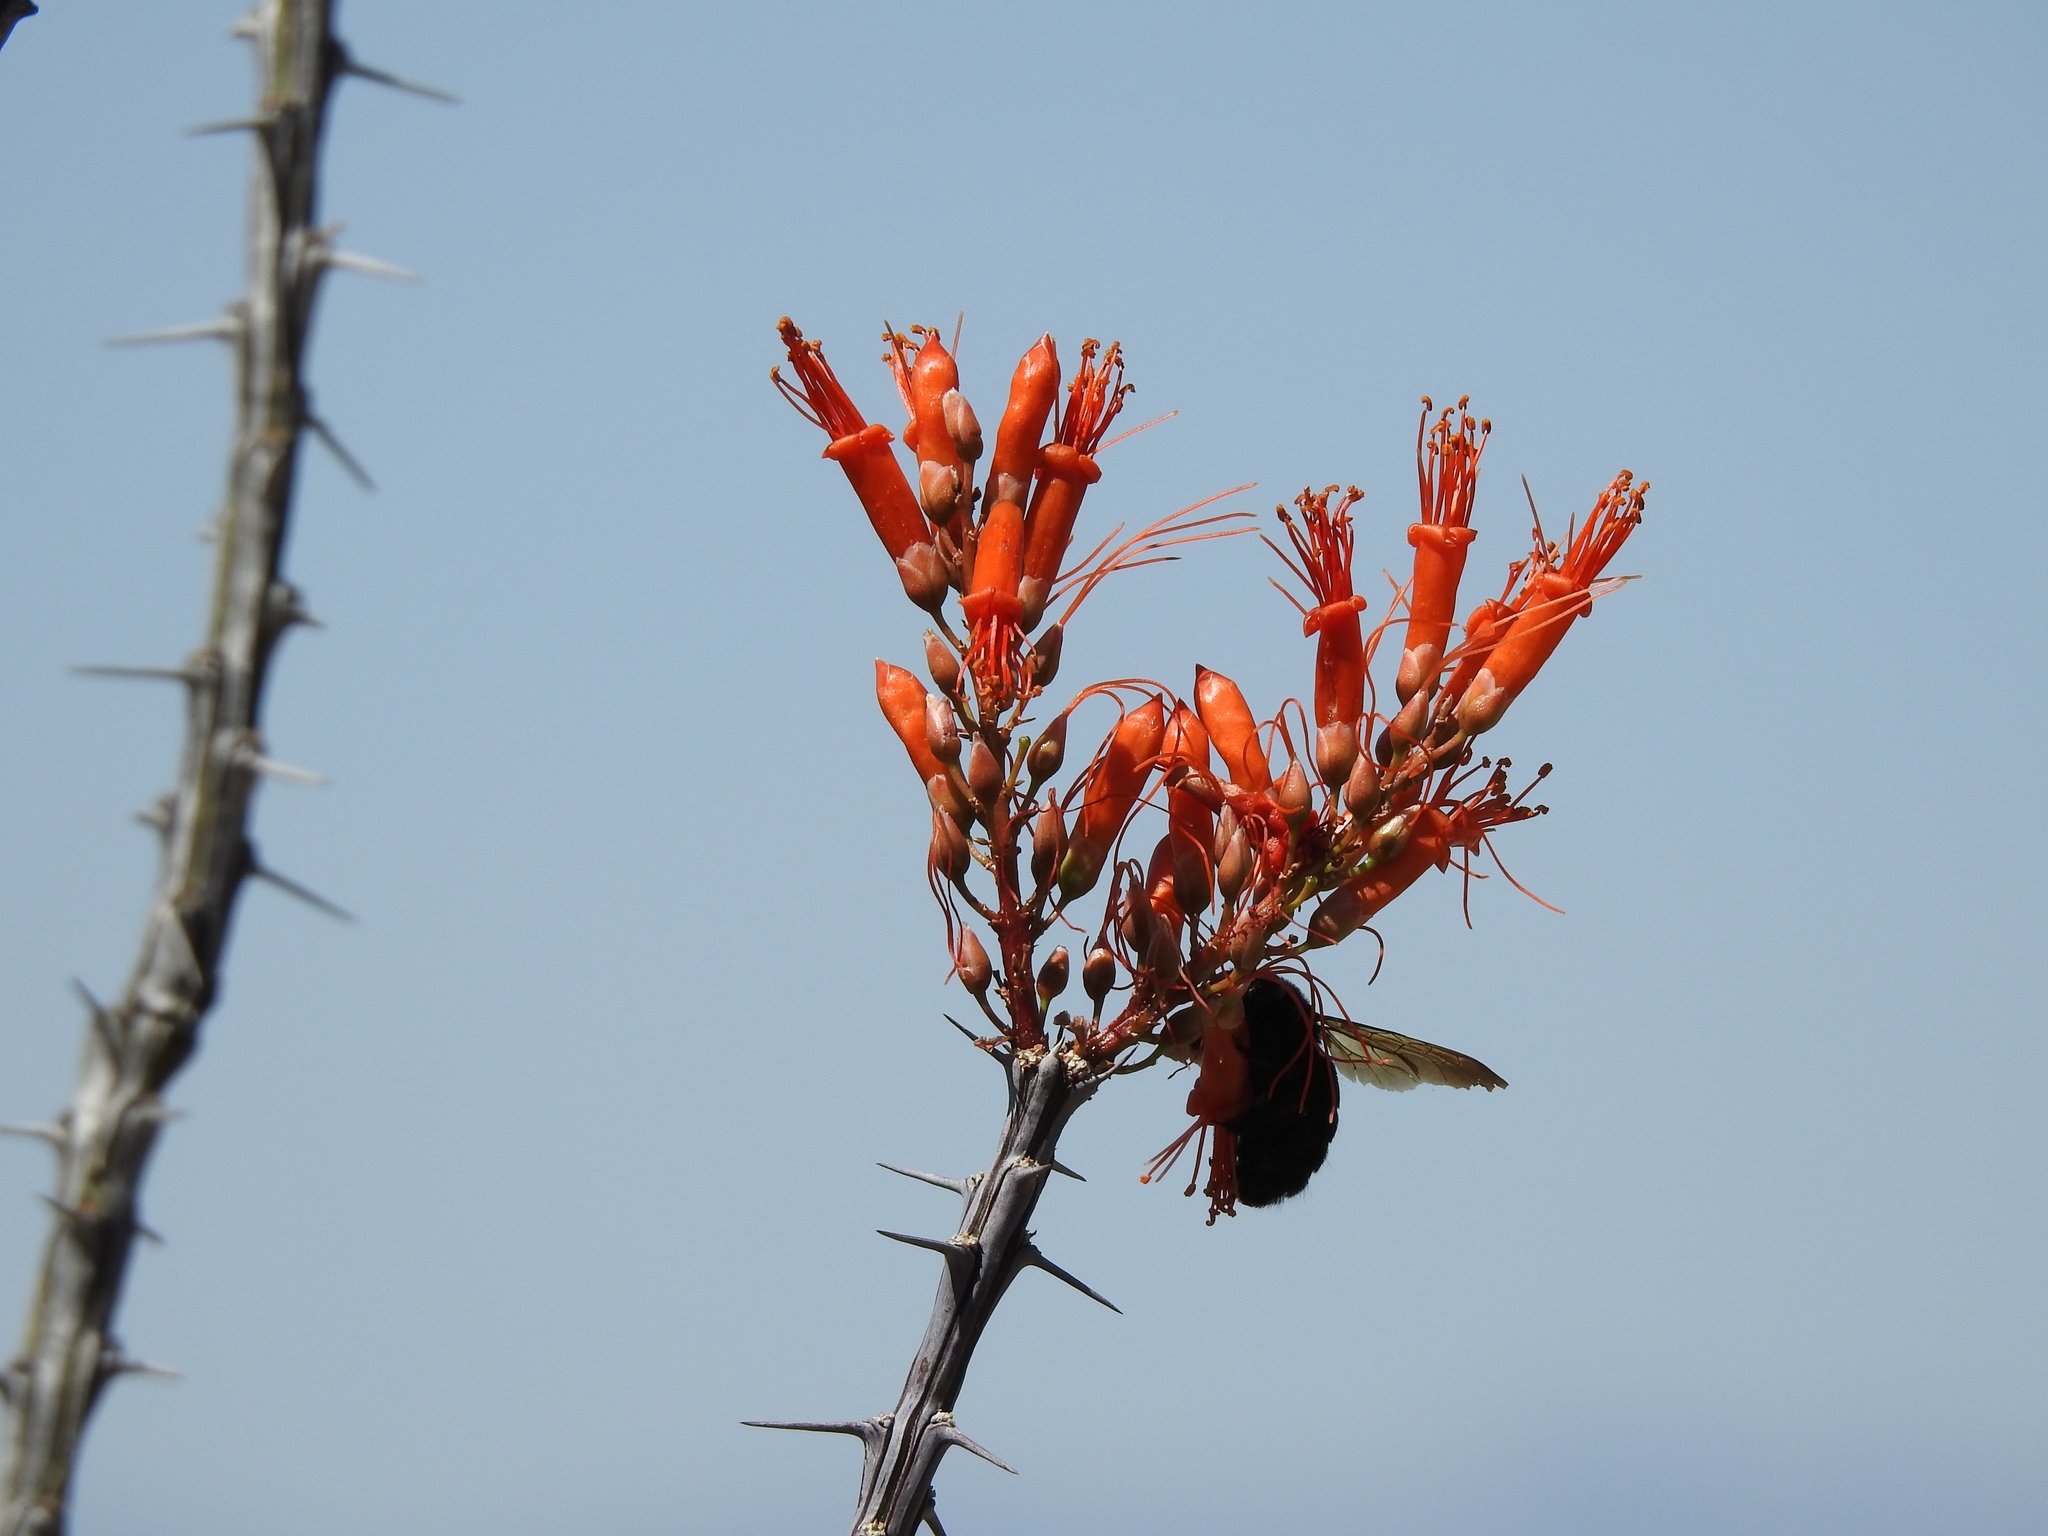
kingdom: Plantae
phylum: Tracheophyta
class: Magnoliopsida
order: Ericales
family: Fouquieriaceae
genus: Fouquieria
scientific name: Fouquieria splendens
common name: Vine-cactus
